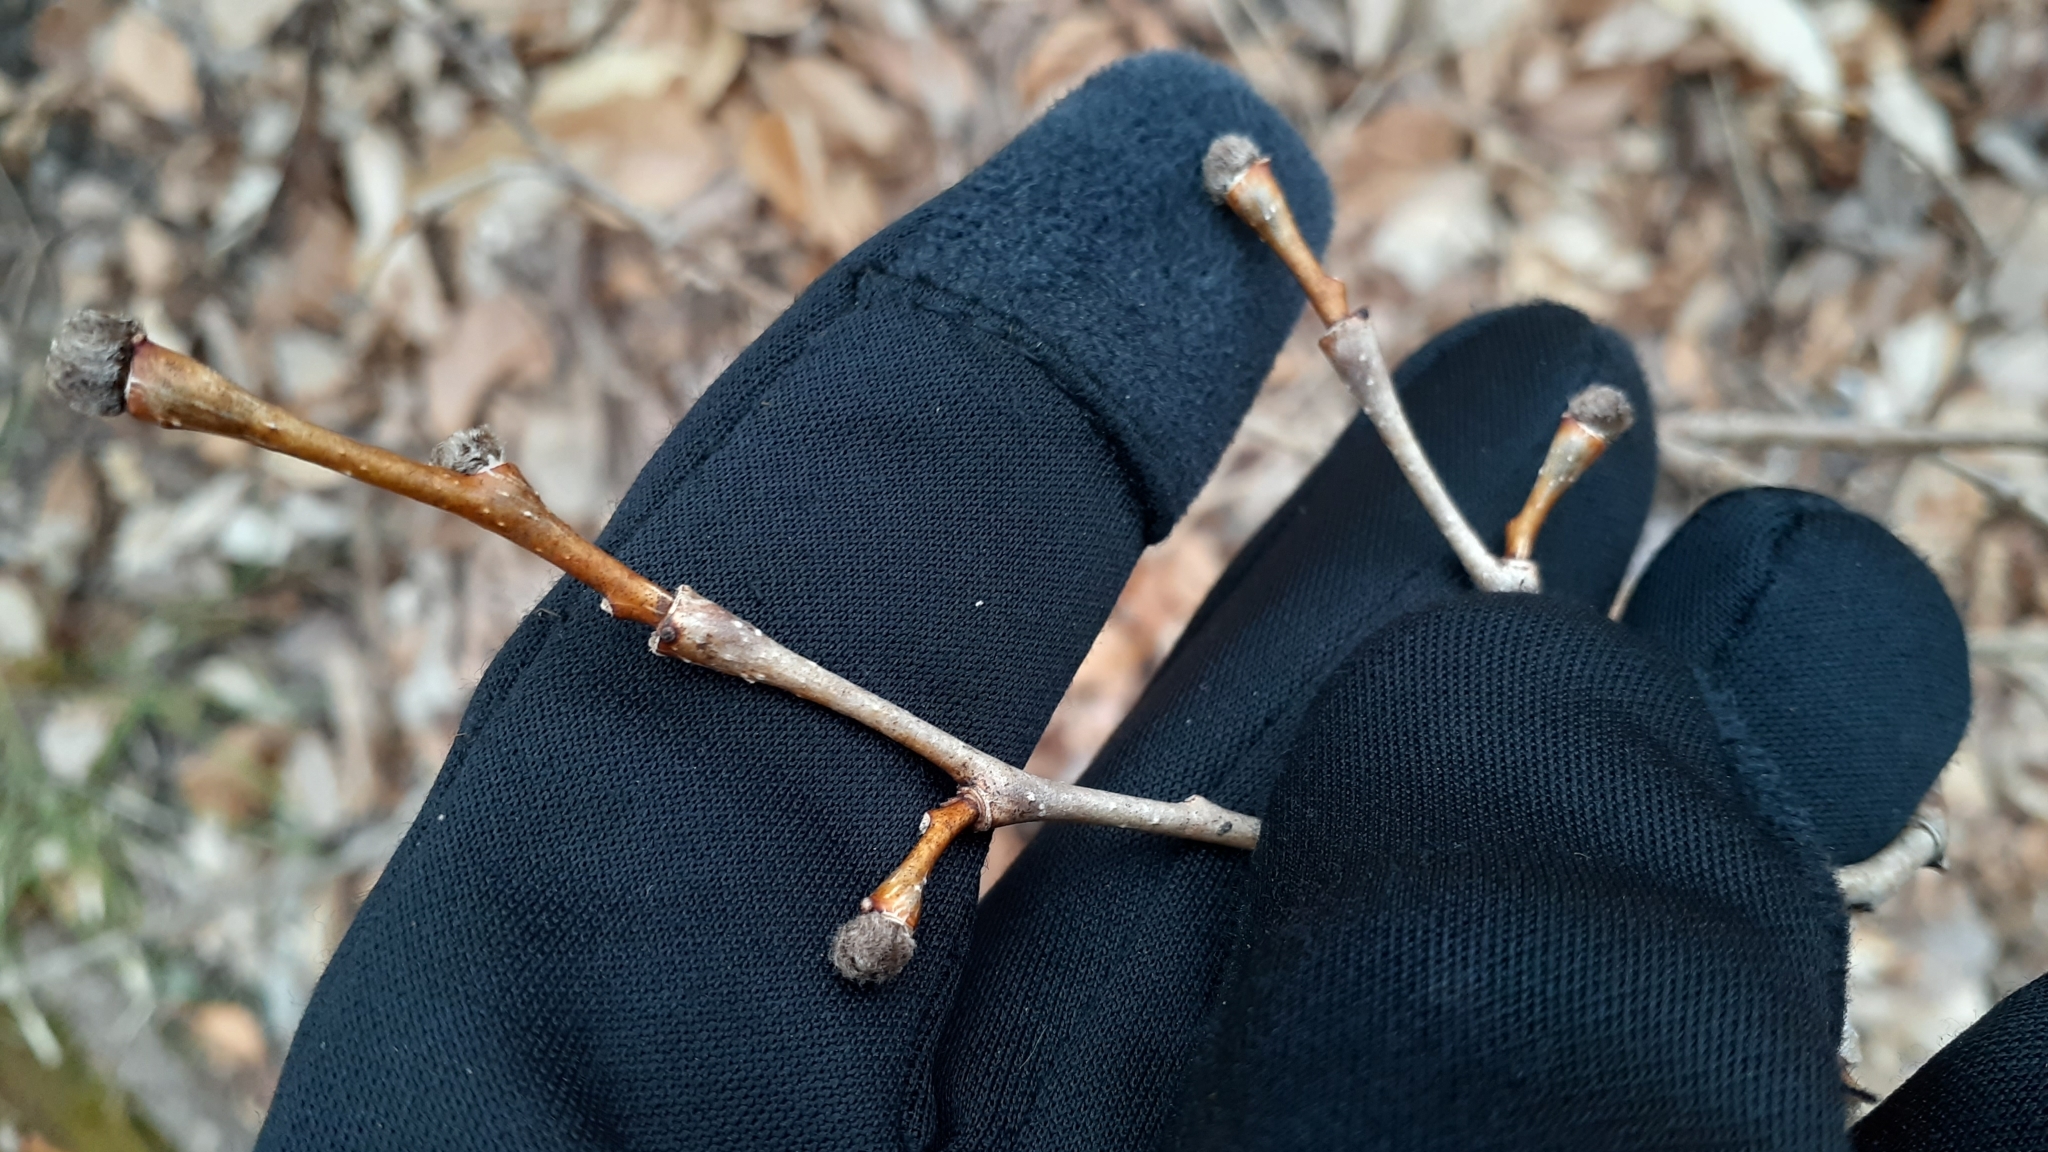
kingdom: Plantae
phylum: Tracheophyta
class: Magnoliopsida
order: Malvales
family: Thymelaeaceae
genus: Dirca
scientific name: Dirca palustris
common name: Leatherwood
